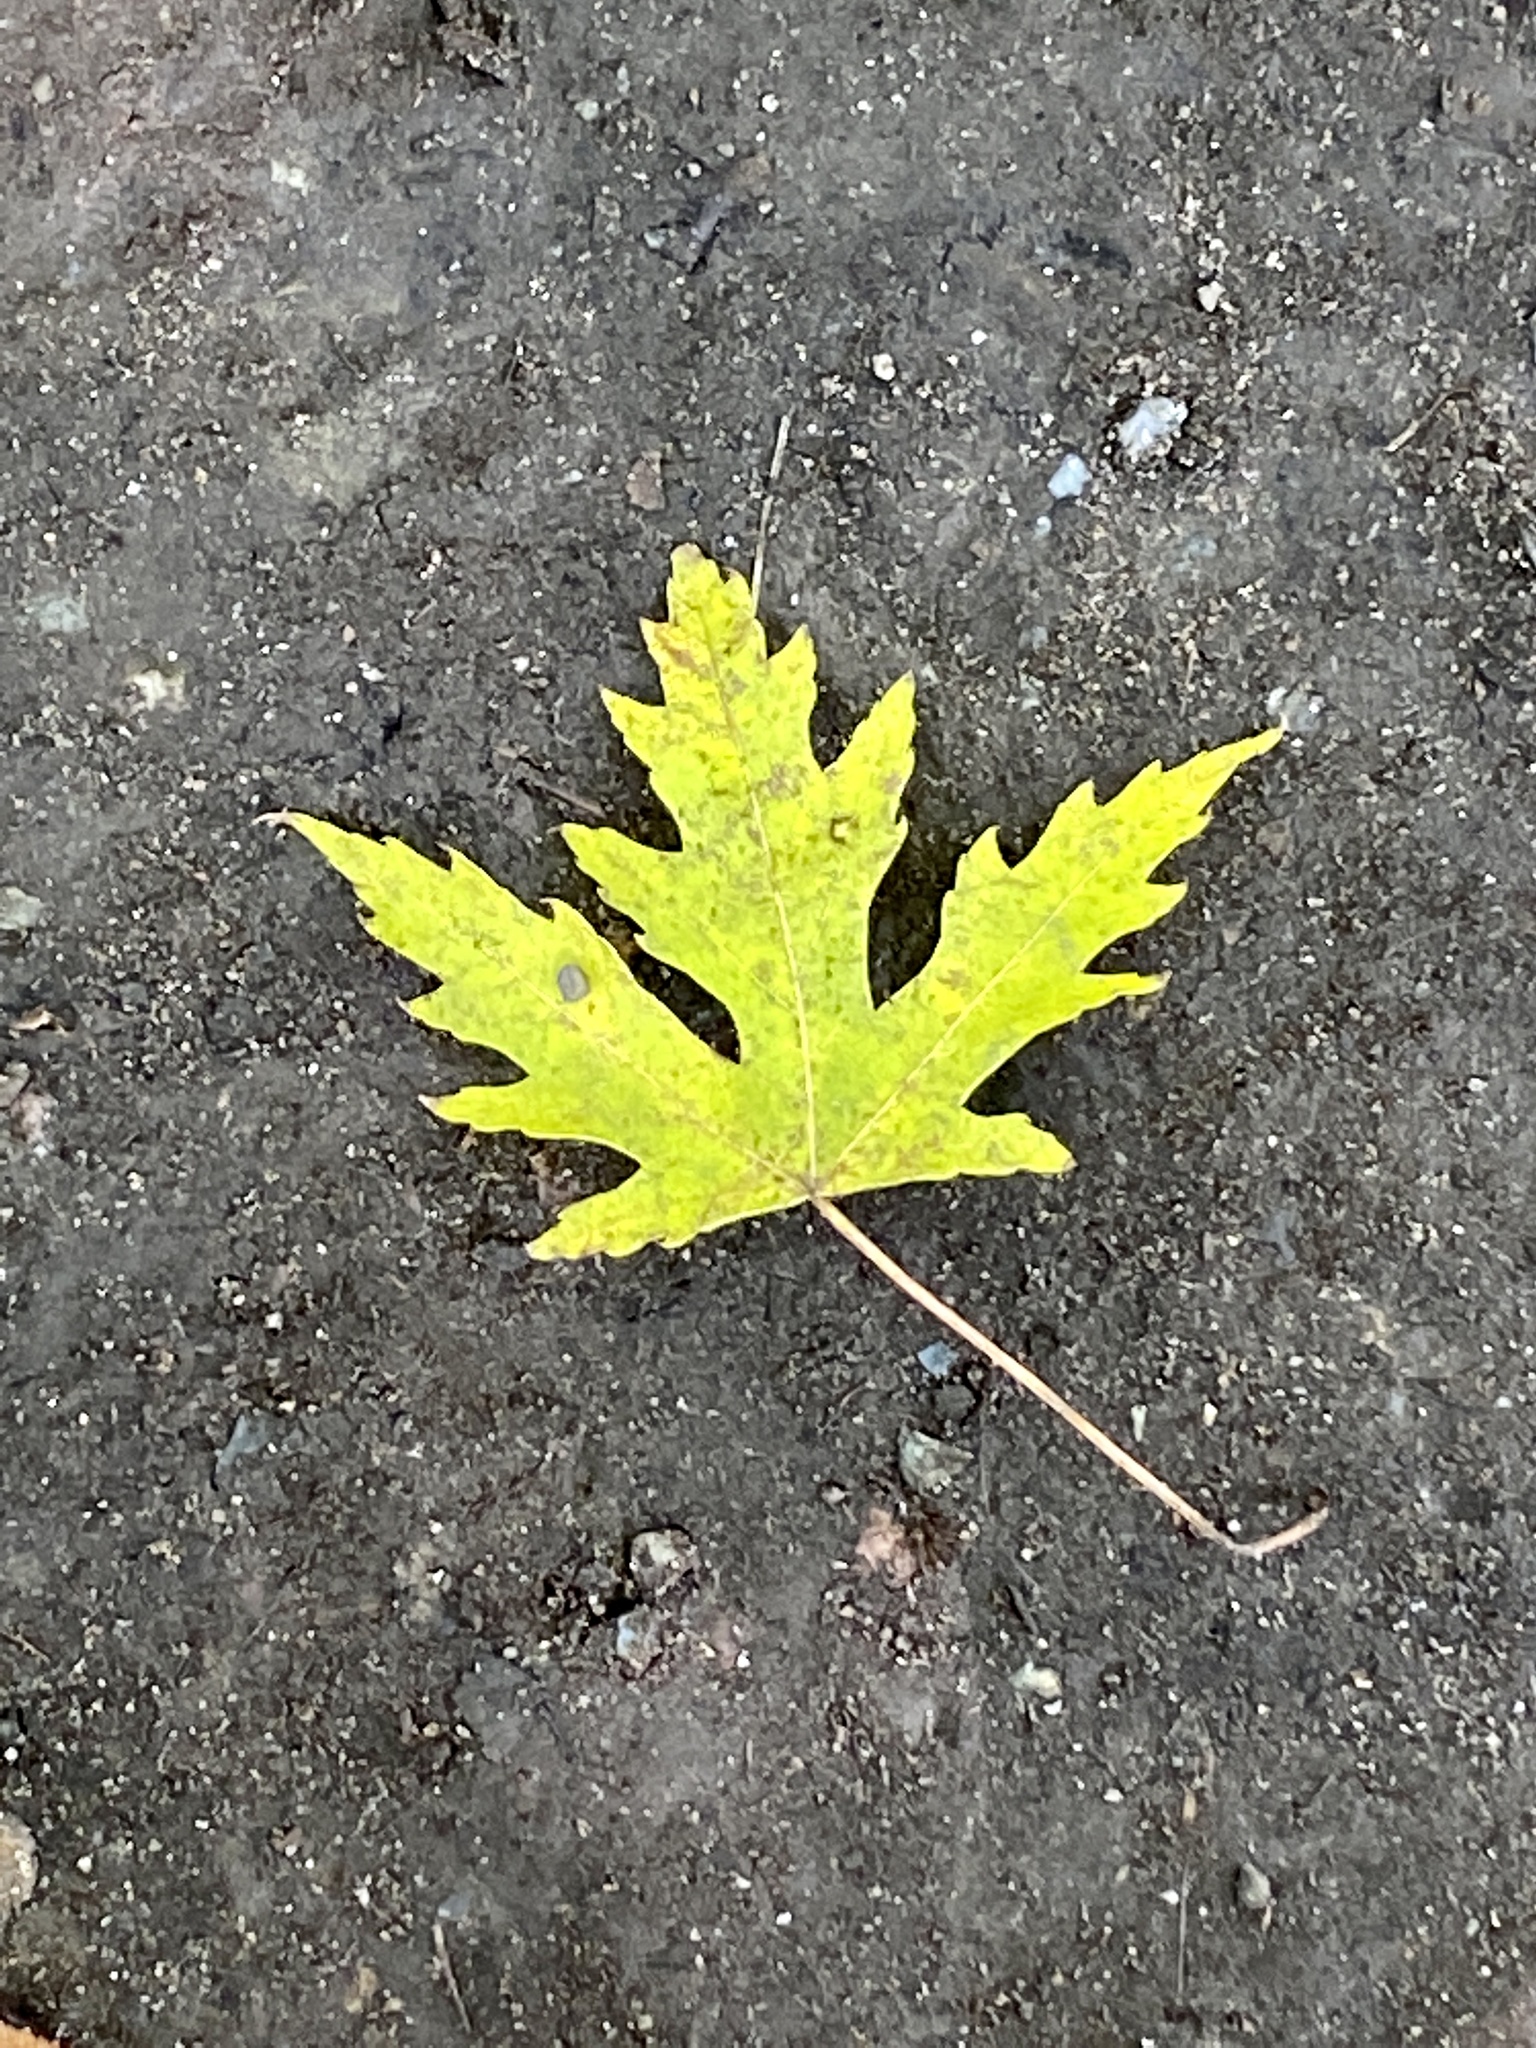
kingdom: Plantae
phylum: Tracheophyta
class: Magnoliopsida
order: Sapindales
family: Sapindaceae
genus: Acer
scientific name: Acer saccharinum
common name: Silver maple
